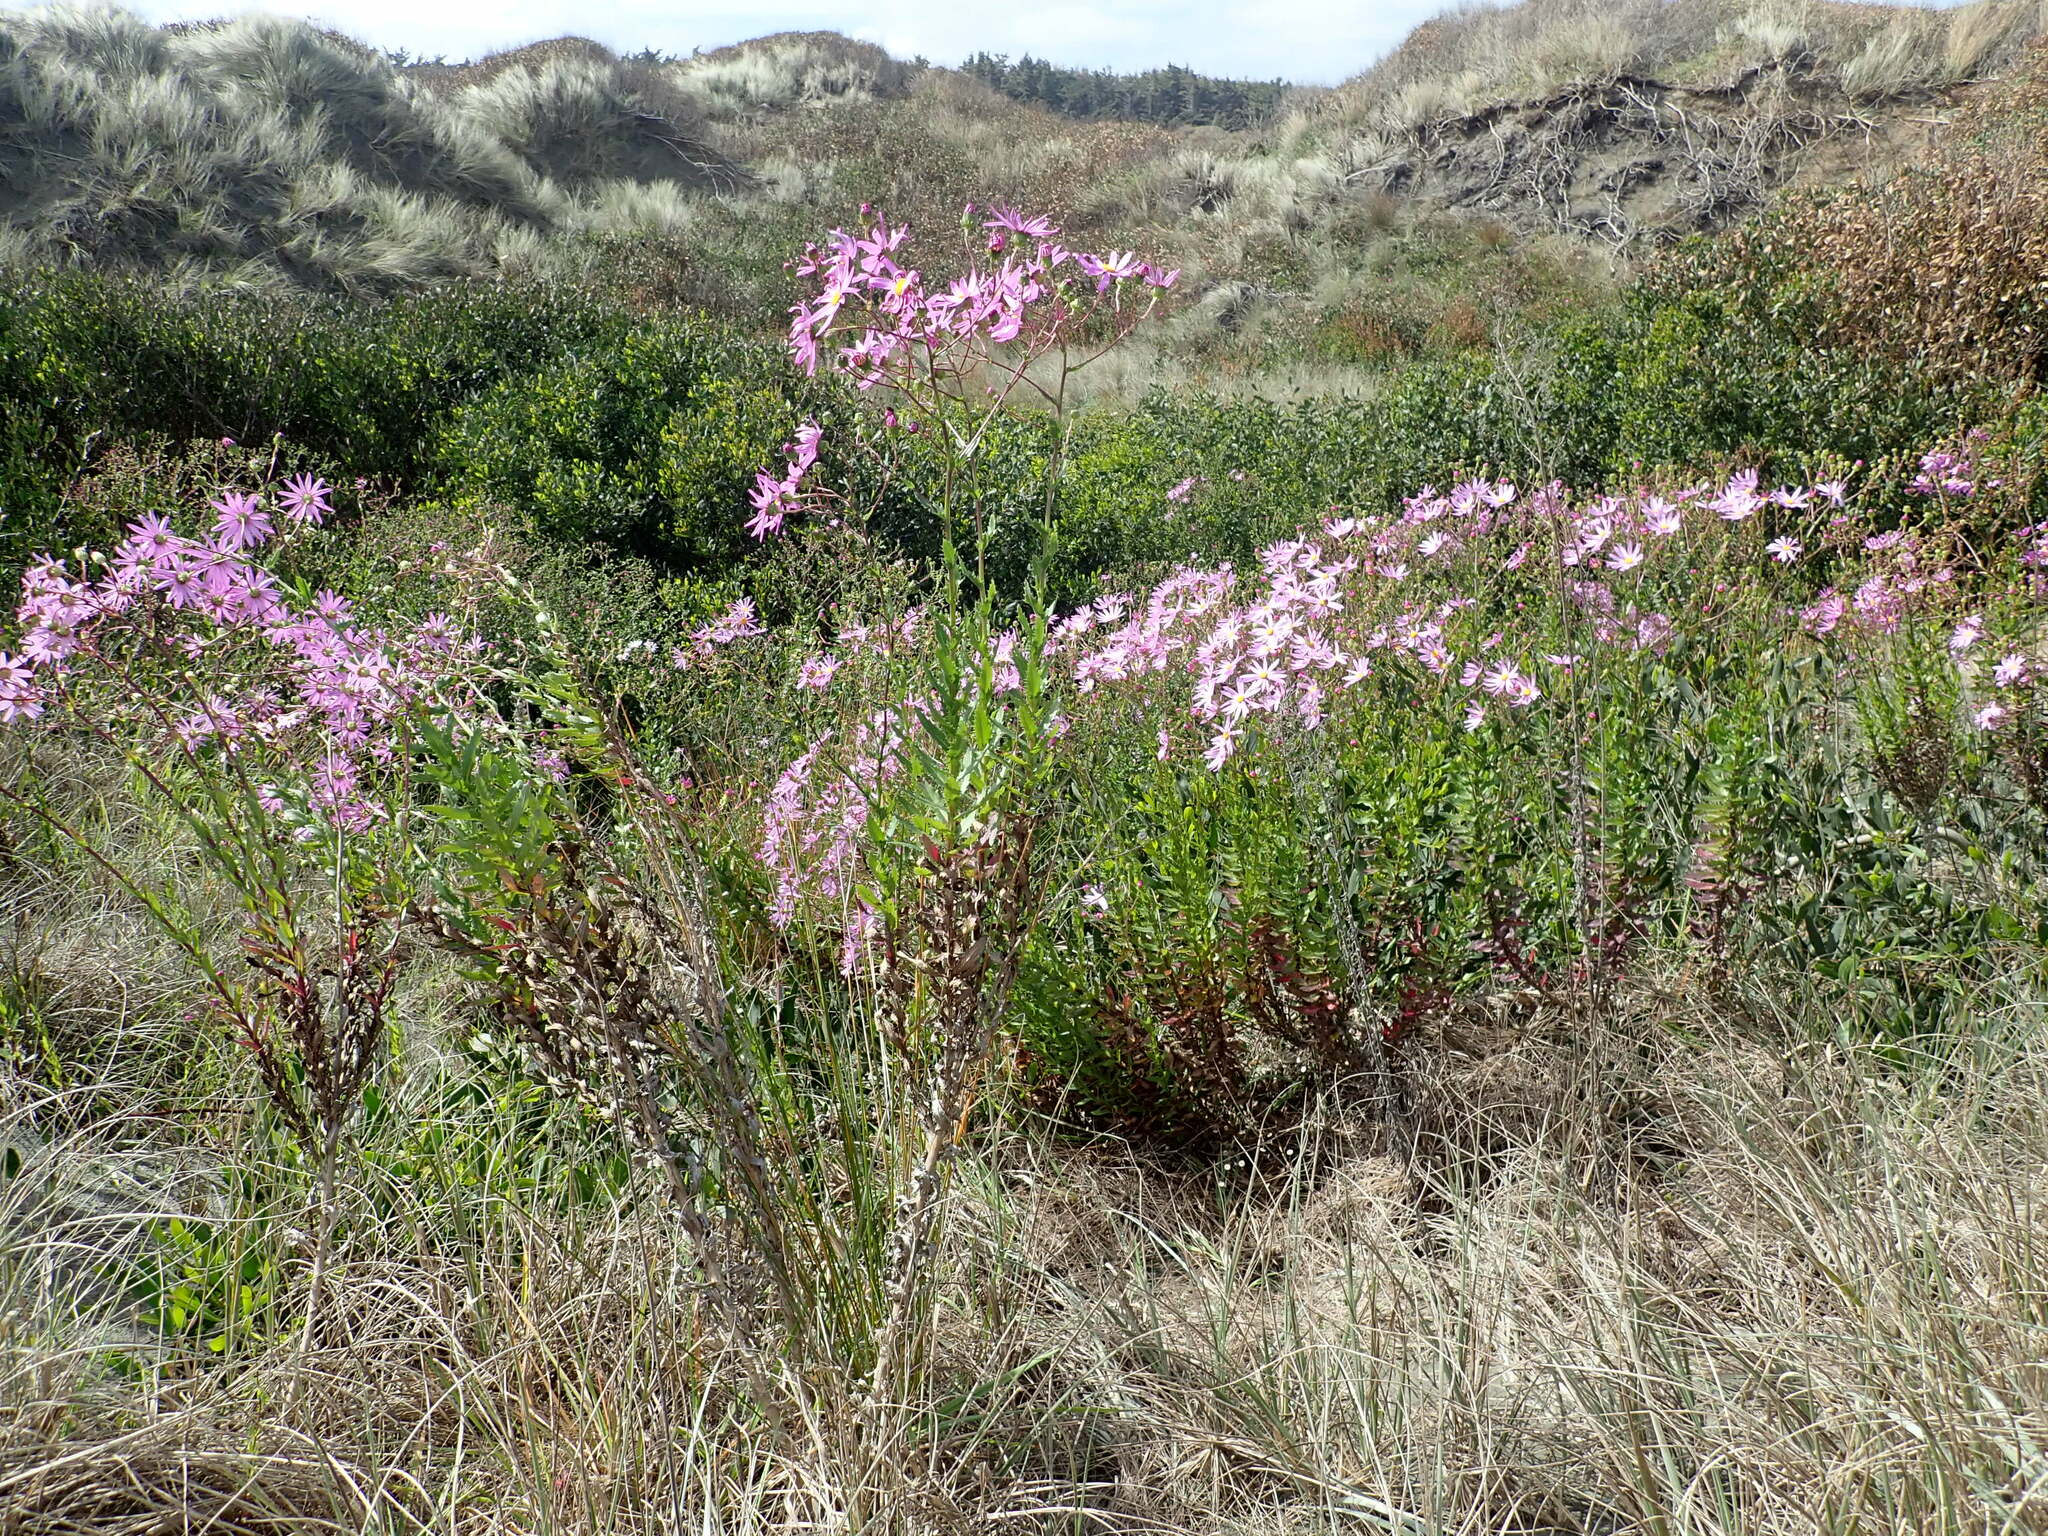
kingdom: Plantae
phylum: Tracheophyta
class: Magnoliopsida
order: Asterales
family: Asteraceae
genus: Senecio
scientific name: Senecio glastifolius
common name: Woad-leaved ragwort
